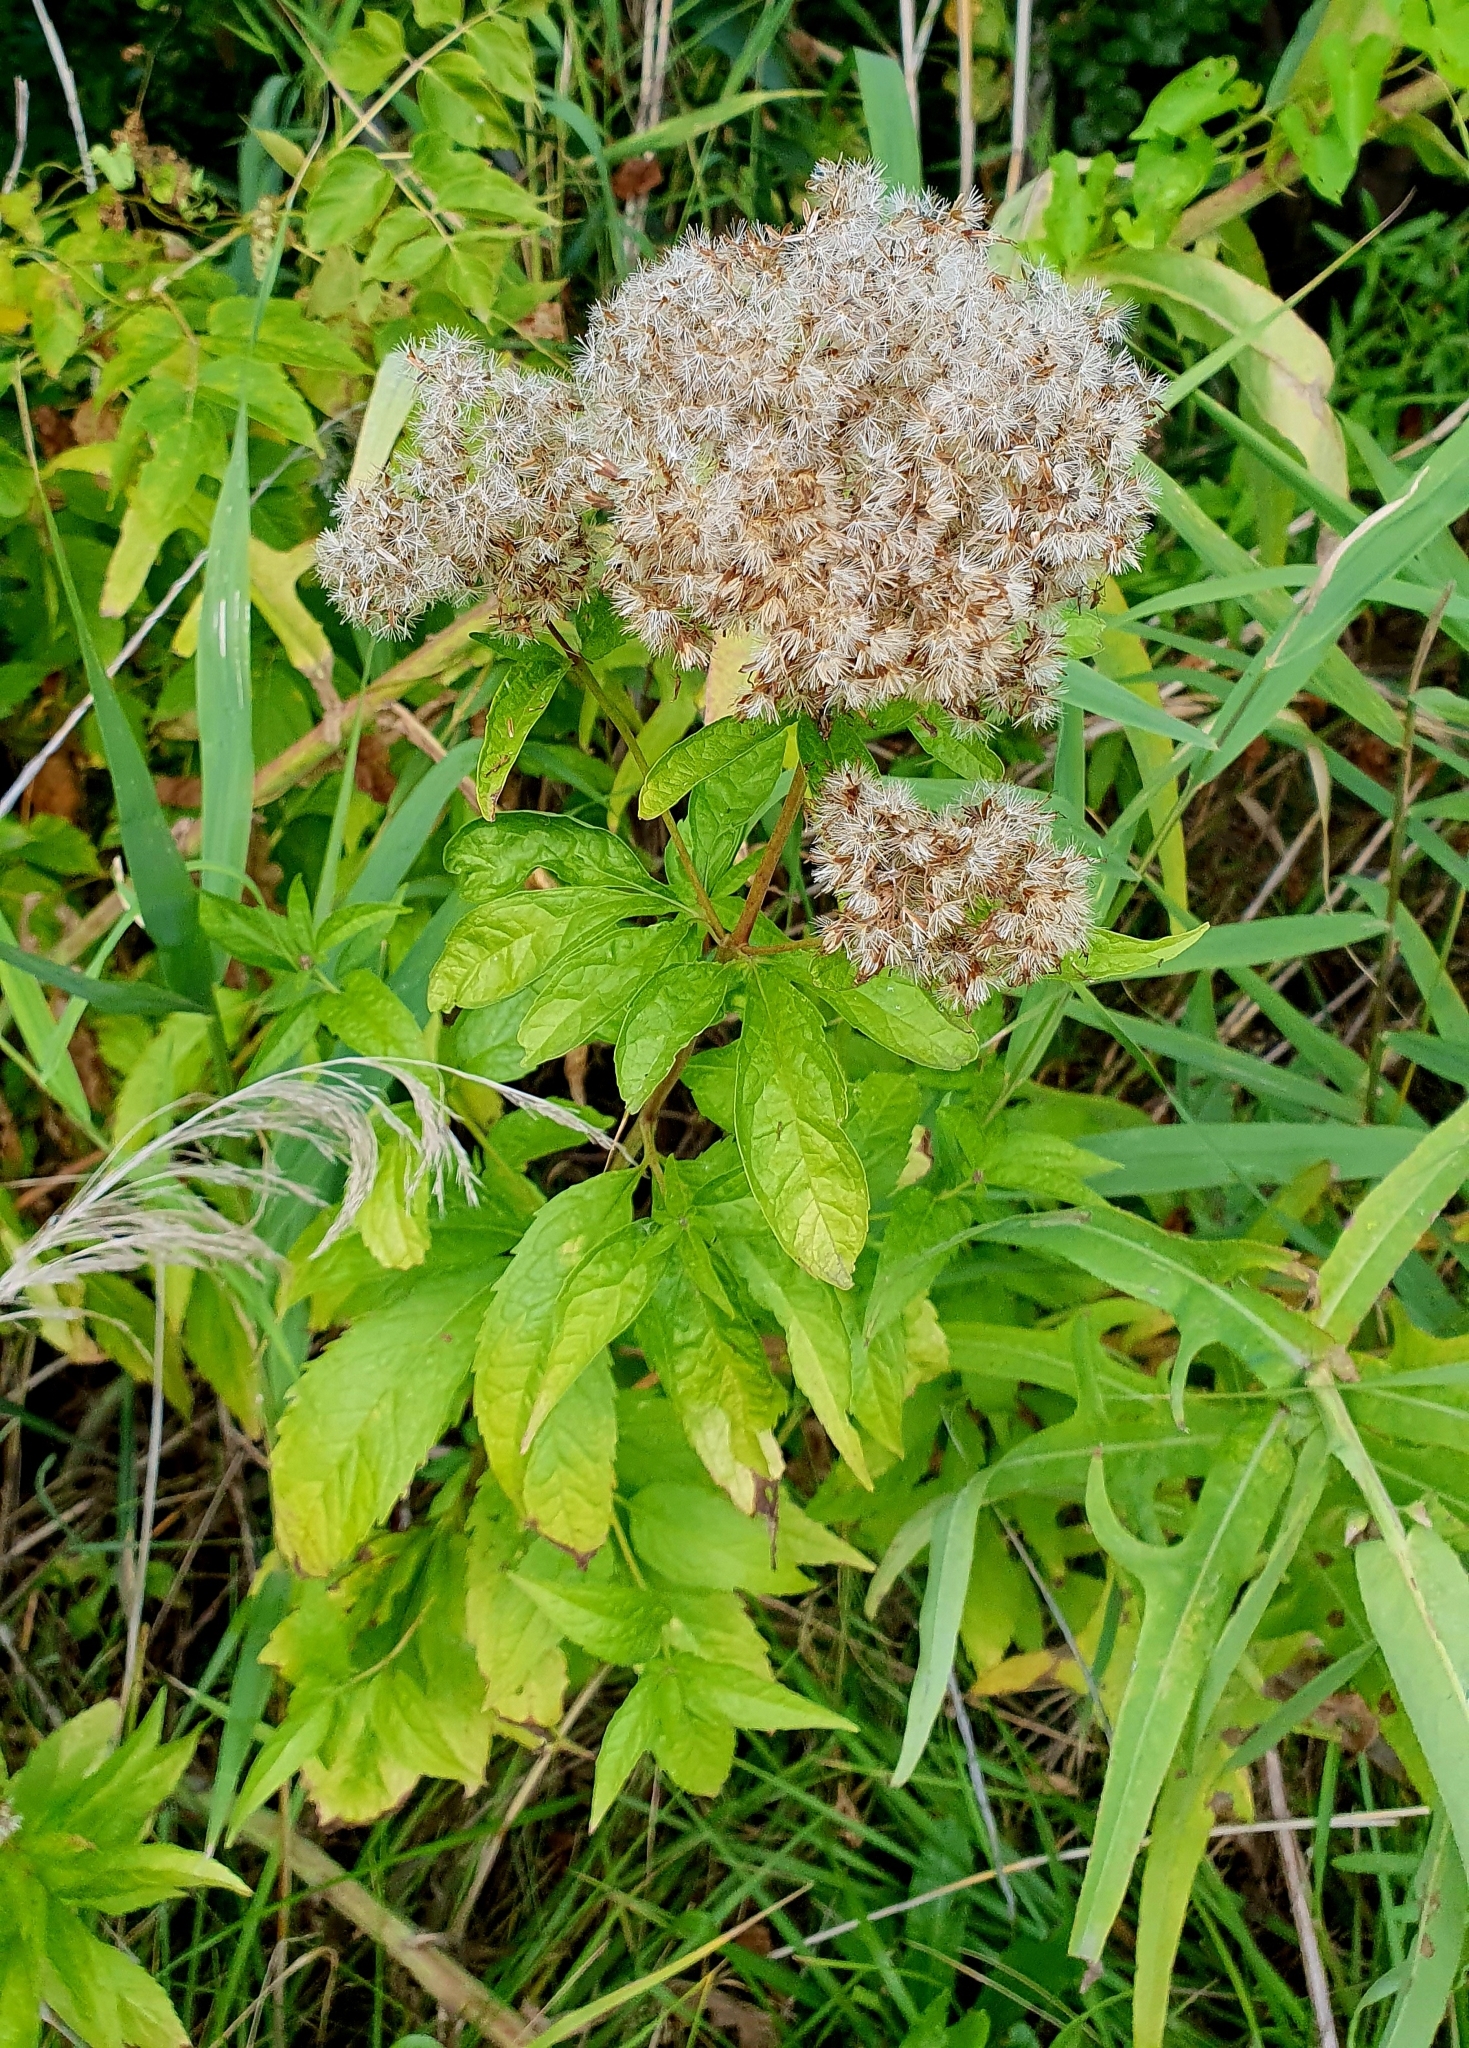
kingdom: Plantae
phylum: Tracheophyta
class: Magnoliopsida
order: Asterales
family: Asteraceae
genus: Eupatorium
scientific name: Eupatorium cannabinum
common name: Hemp-agrimony
